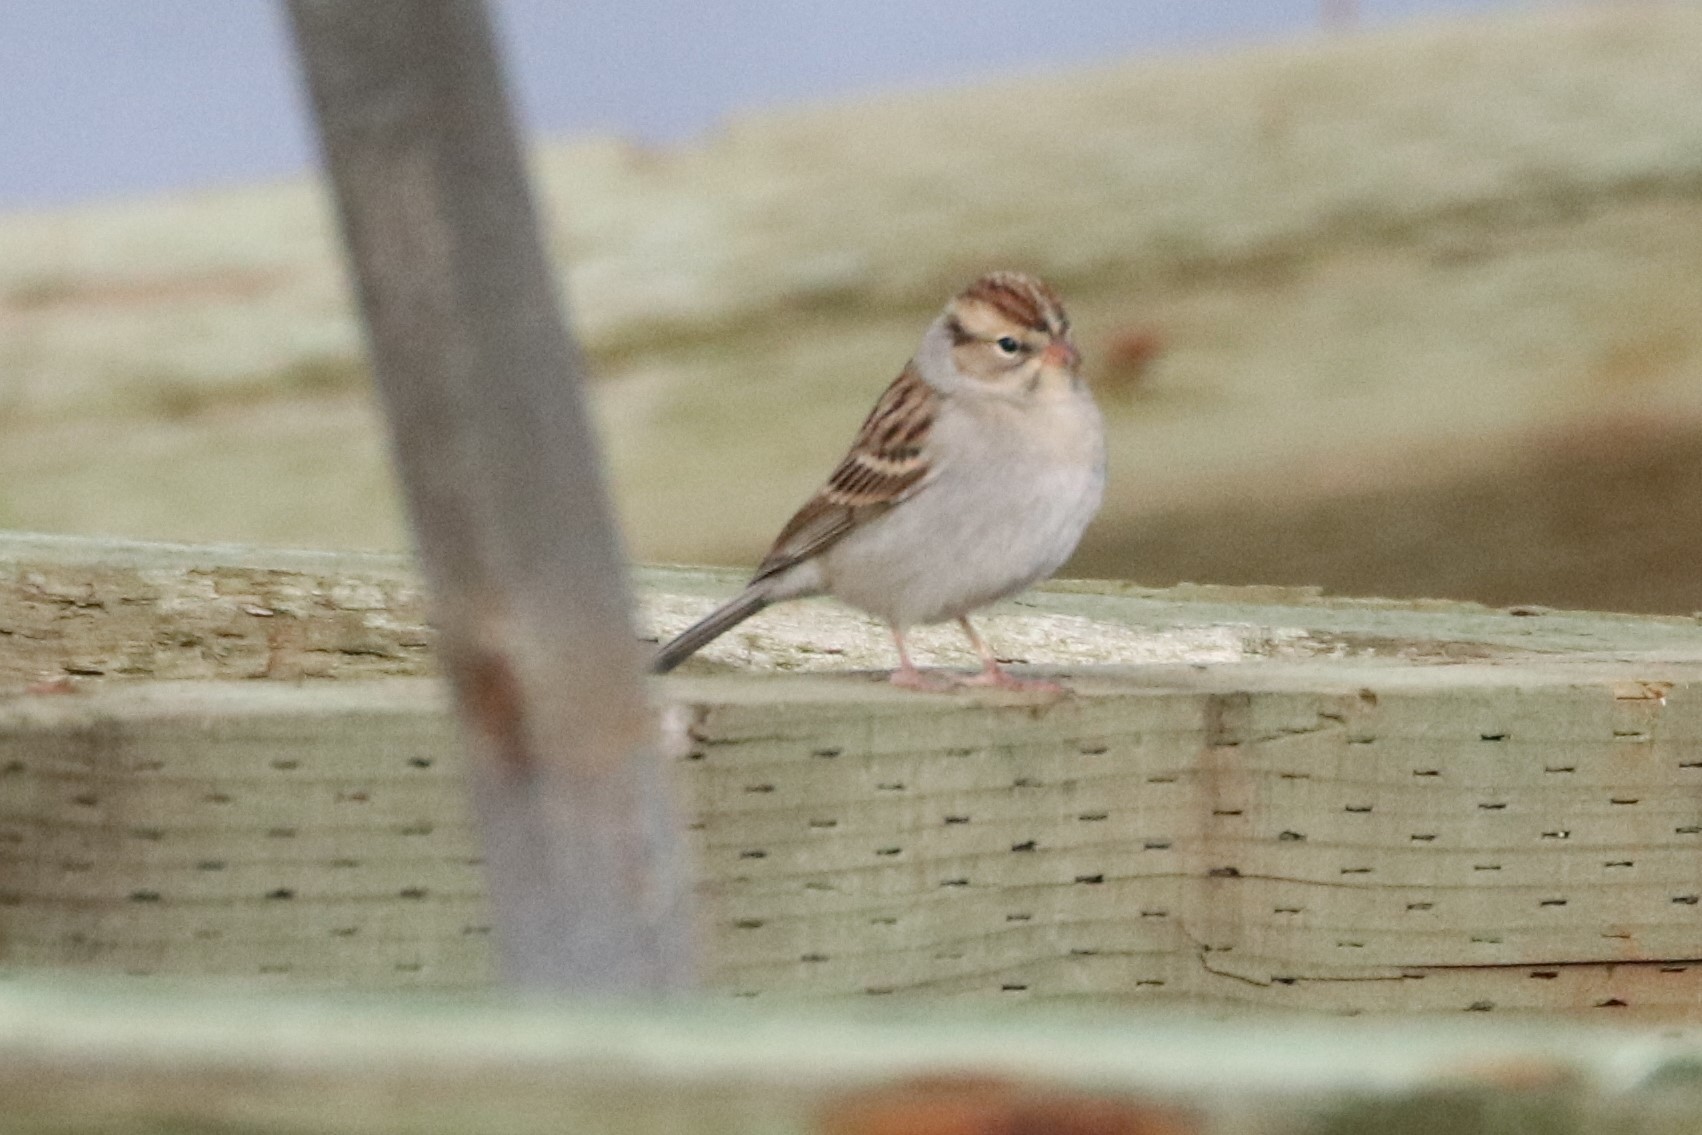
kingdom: Animalia
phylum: Chordata
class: Aves
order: Passeriformes
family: Passerellidae
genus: Spizella
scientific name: Spizella passerina
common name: Chipping sparrow
